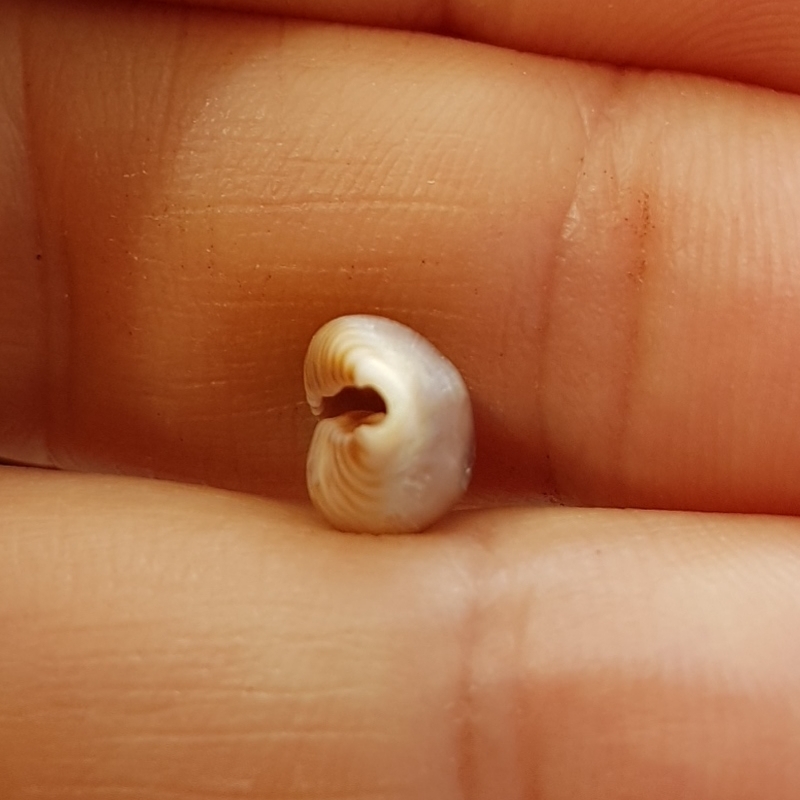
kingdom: Animalia
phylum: Mollusca
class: Gastropoda
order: Littorinimorpha
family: Pediculariidae
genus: Jenneria
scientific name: Jenneria pustulata
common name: Pustuled cowrie
